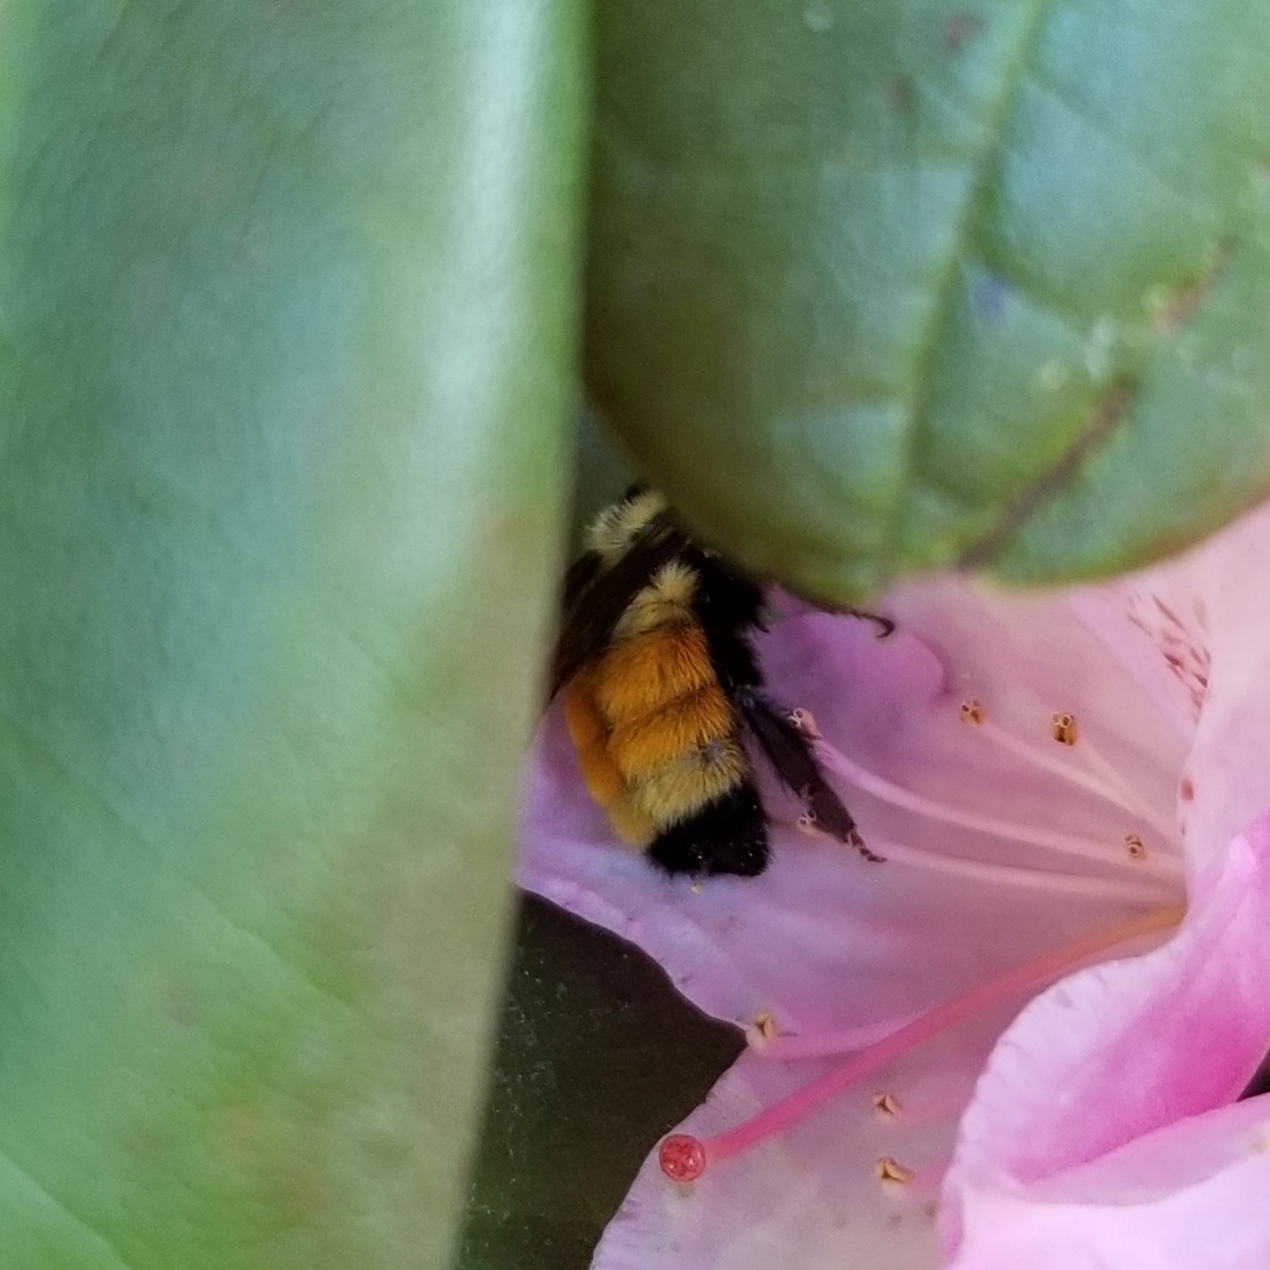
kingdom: Animalia
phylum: Arthropoda
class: Insecta
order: Hymenoptera
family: Apidae
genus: Bombus
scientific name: Bombus ternarius
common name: Tri-colored bumble bee
